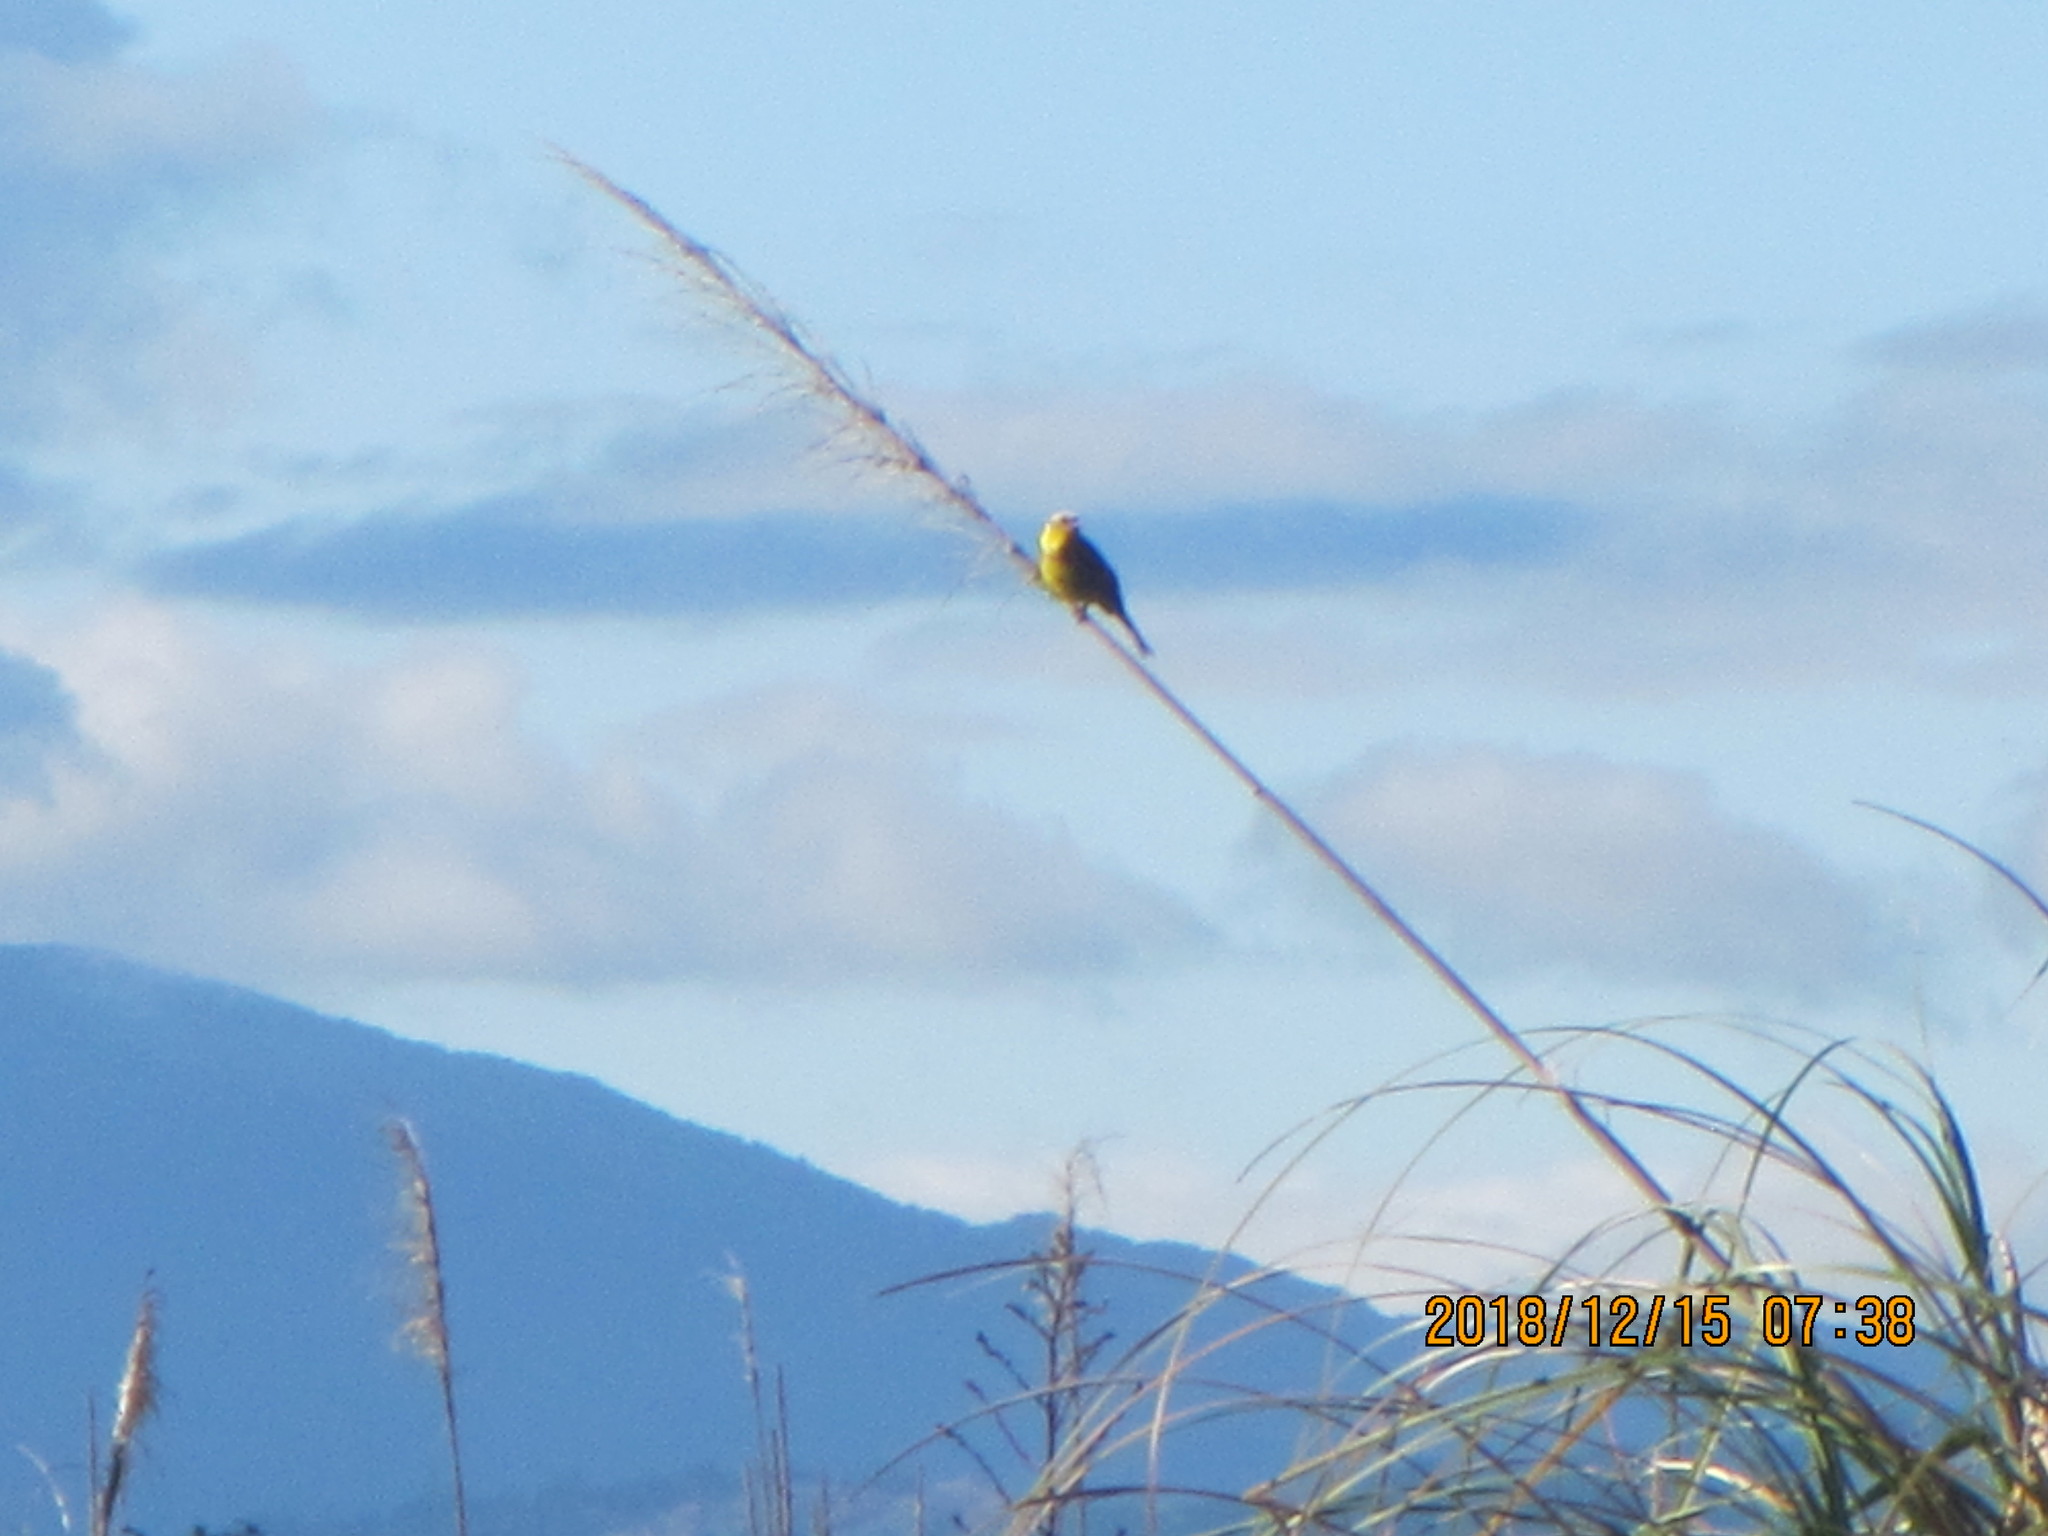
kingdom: Animalia
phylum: Chordata
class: Aves
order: Passeriformes
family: Emberizidae
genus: Emberiza
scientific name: Emberiza citrinella
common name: Yellowhammer
